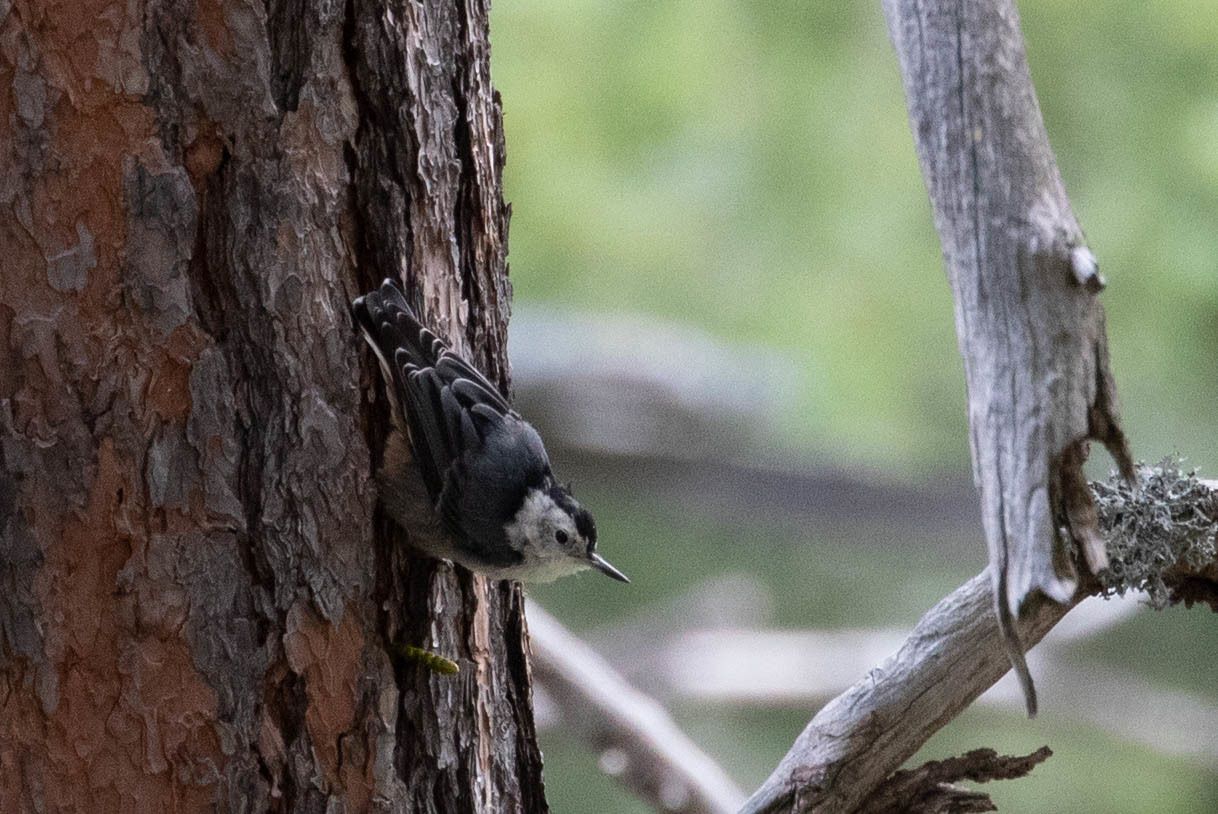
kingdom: Animalia
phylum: Chordata
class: Aves
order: Passeriformes
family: Sittidae
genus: Sitta
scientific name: Sitta carolinensis
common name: White-breasted nuthatch
